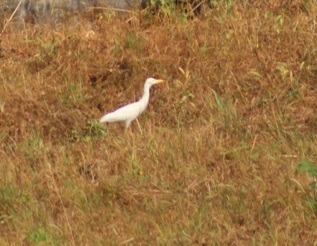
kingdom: Animalia
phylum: Chordata
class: Aves
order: Pelecaniformes
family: Ardeidae
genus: Bubulcus
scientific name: Bubulcus ibis
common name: Cattle egret
